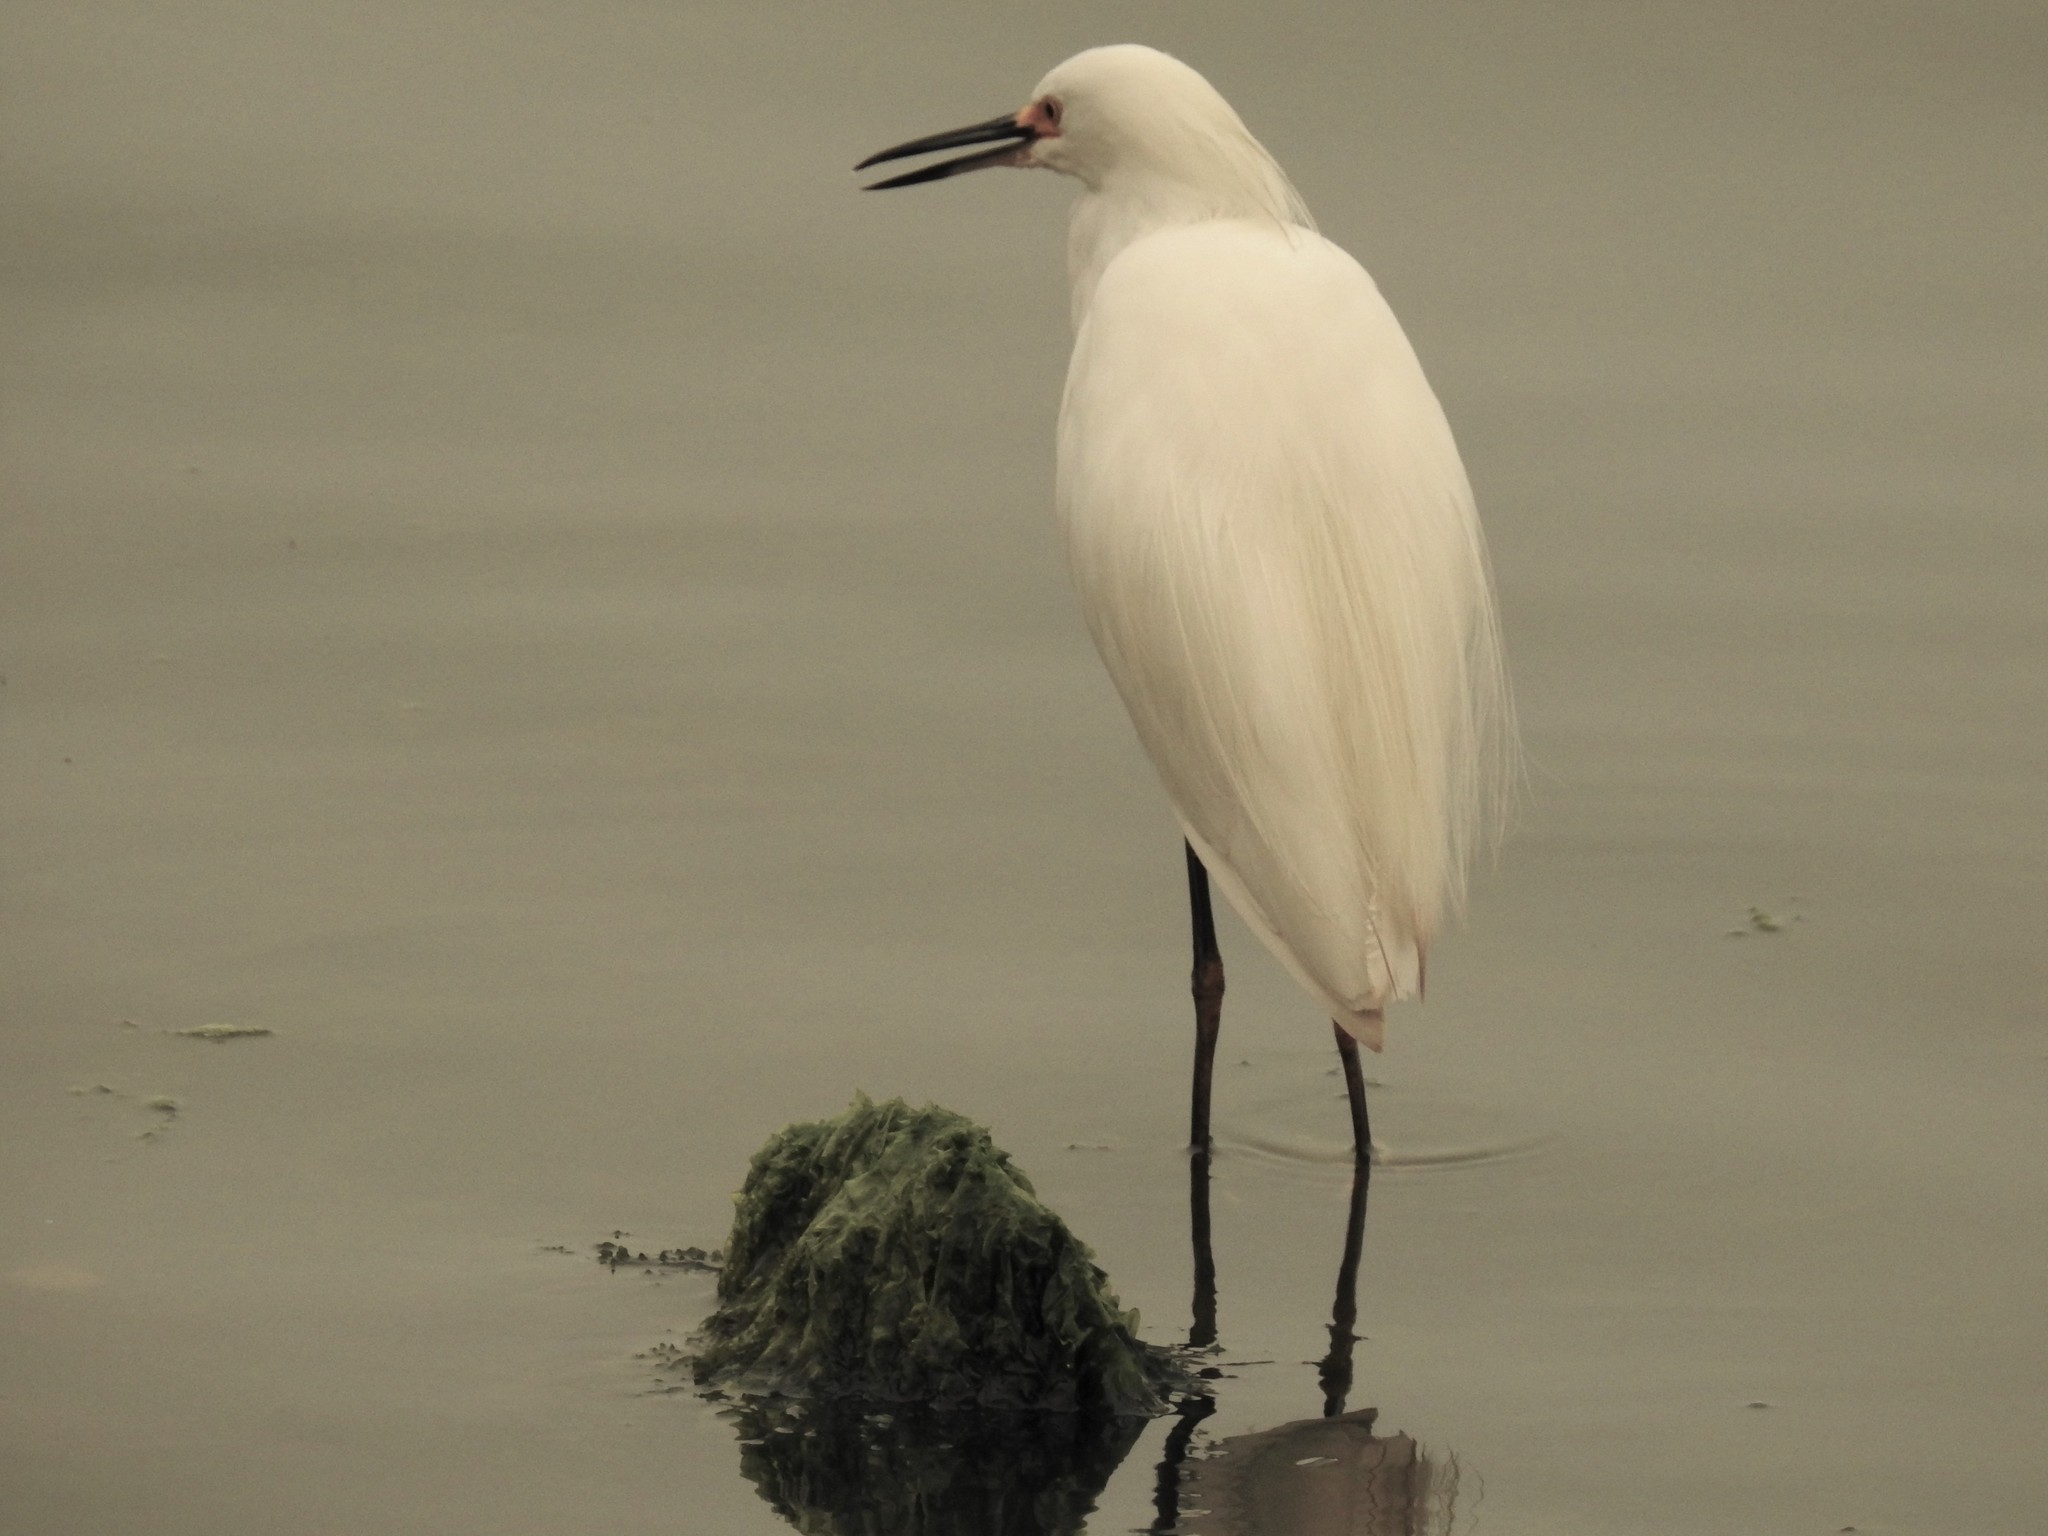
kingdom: Animalia
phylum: Chordata
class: Aves
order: Pelecaniformes
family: Ardeidae
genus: Egretta
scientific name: Egretta thula
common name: Snowy egret
